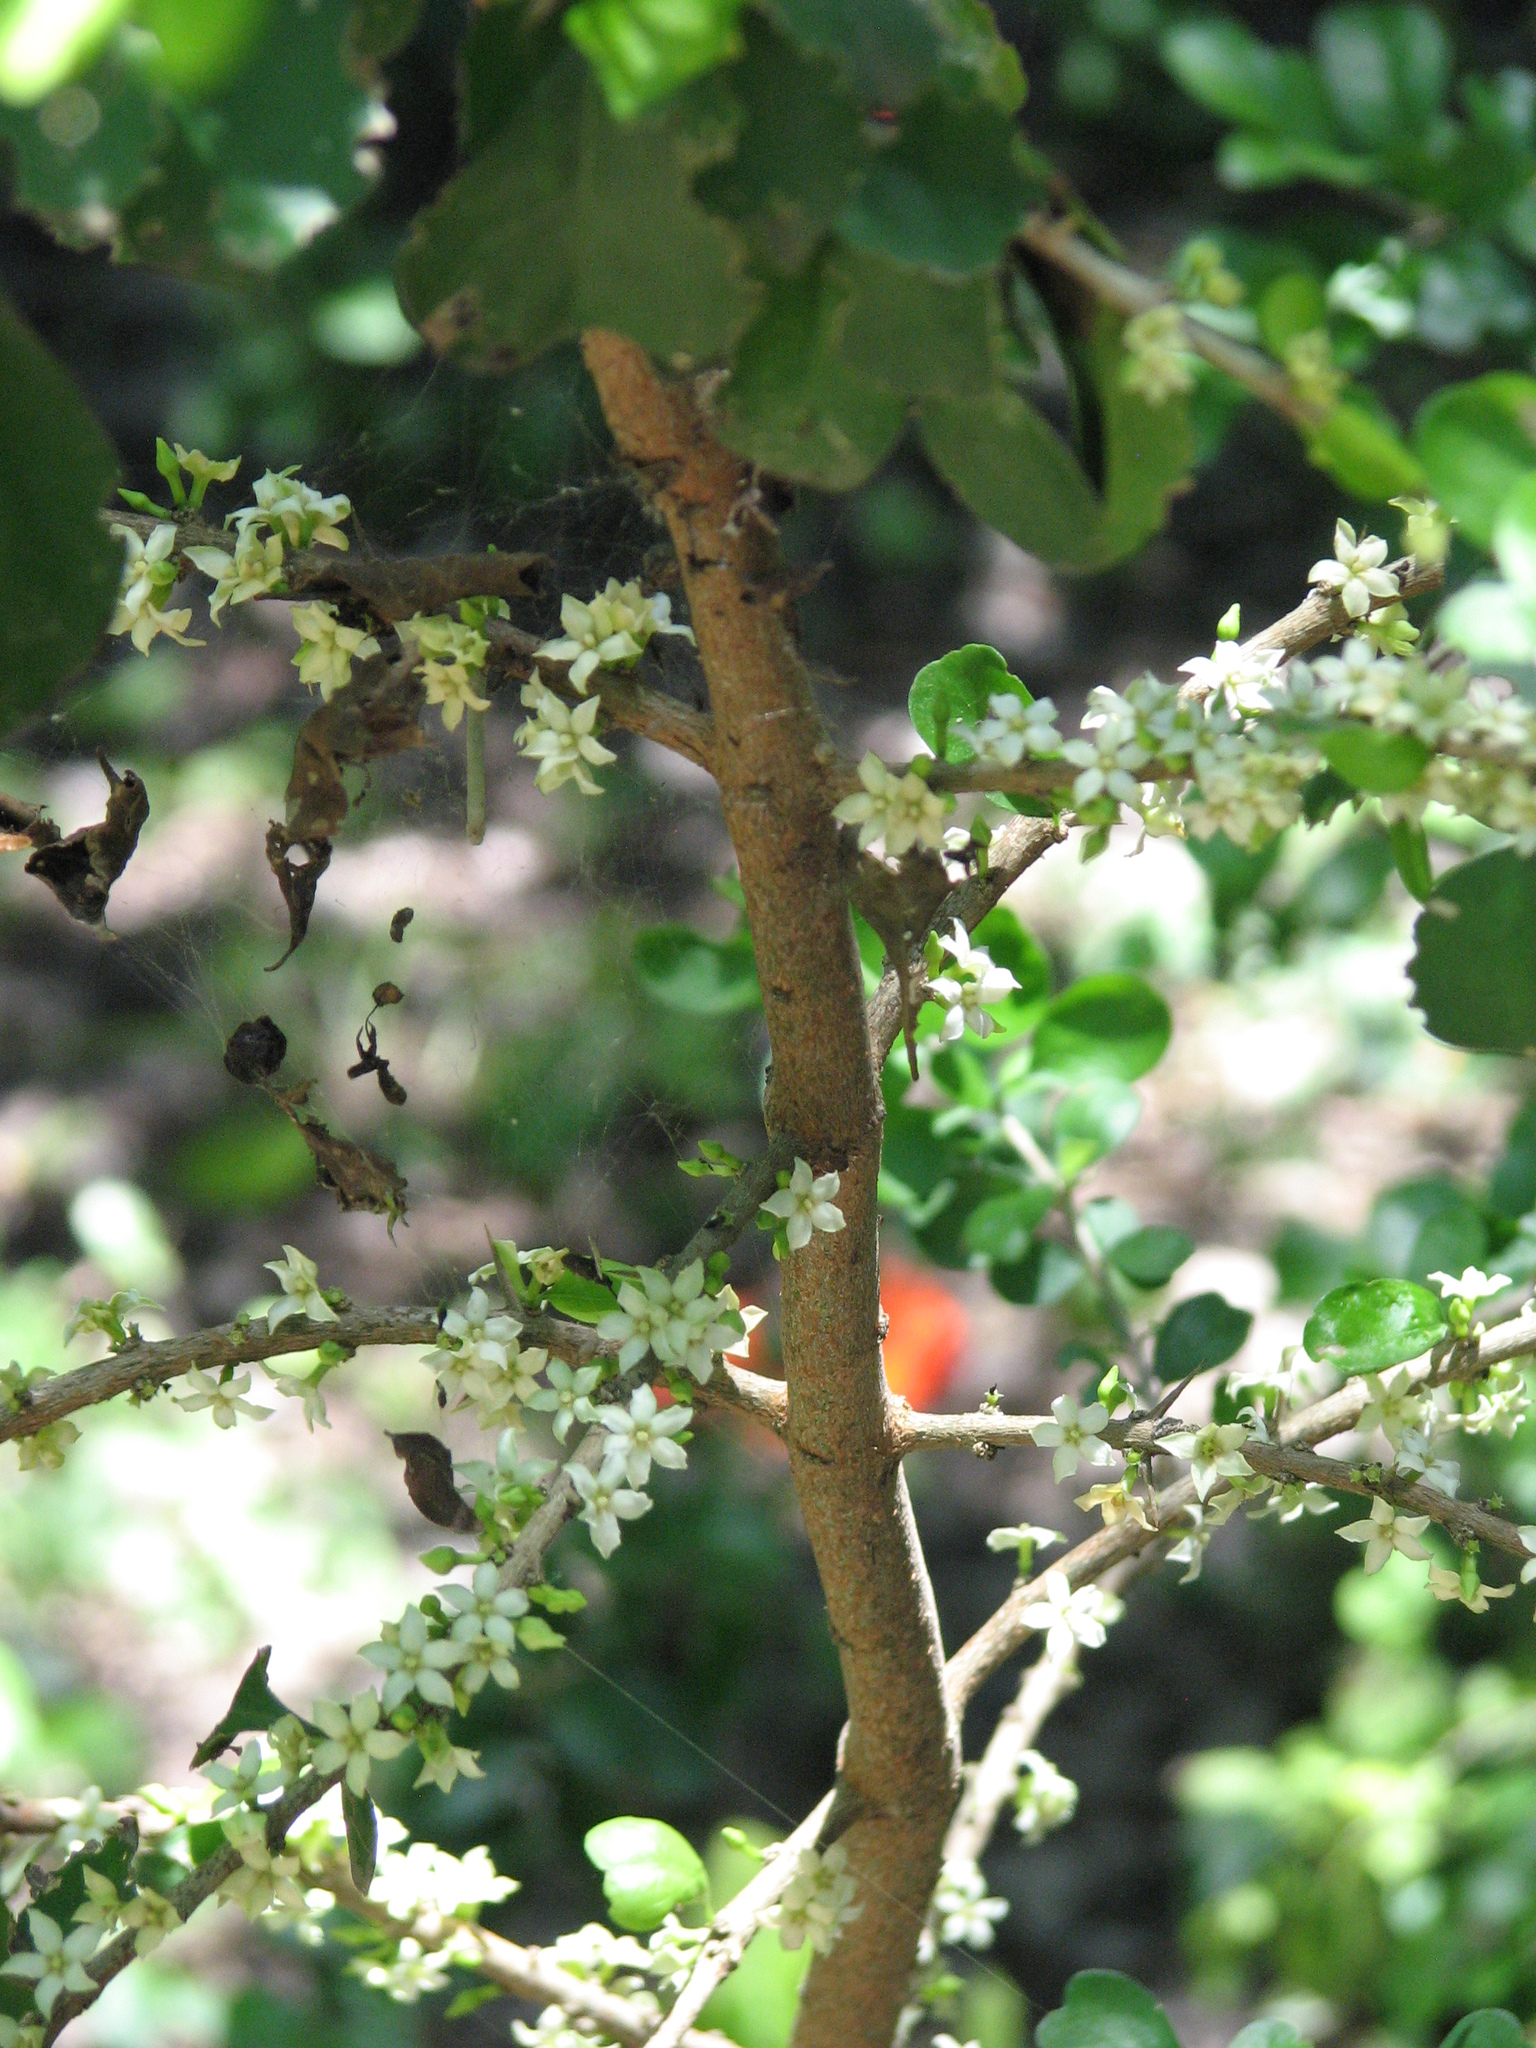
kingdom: Plantae
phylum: Tracheophyta
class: Magnoliopsida
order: Gentianales
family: Rubiaceae
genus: Randia
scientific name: Randia obcordata
